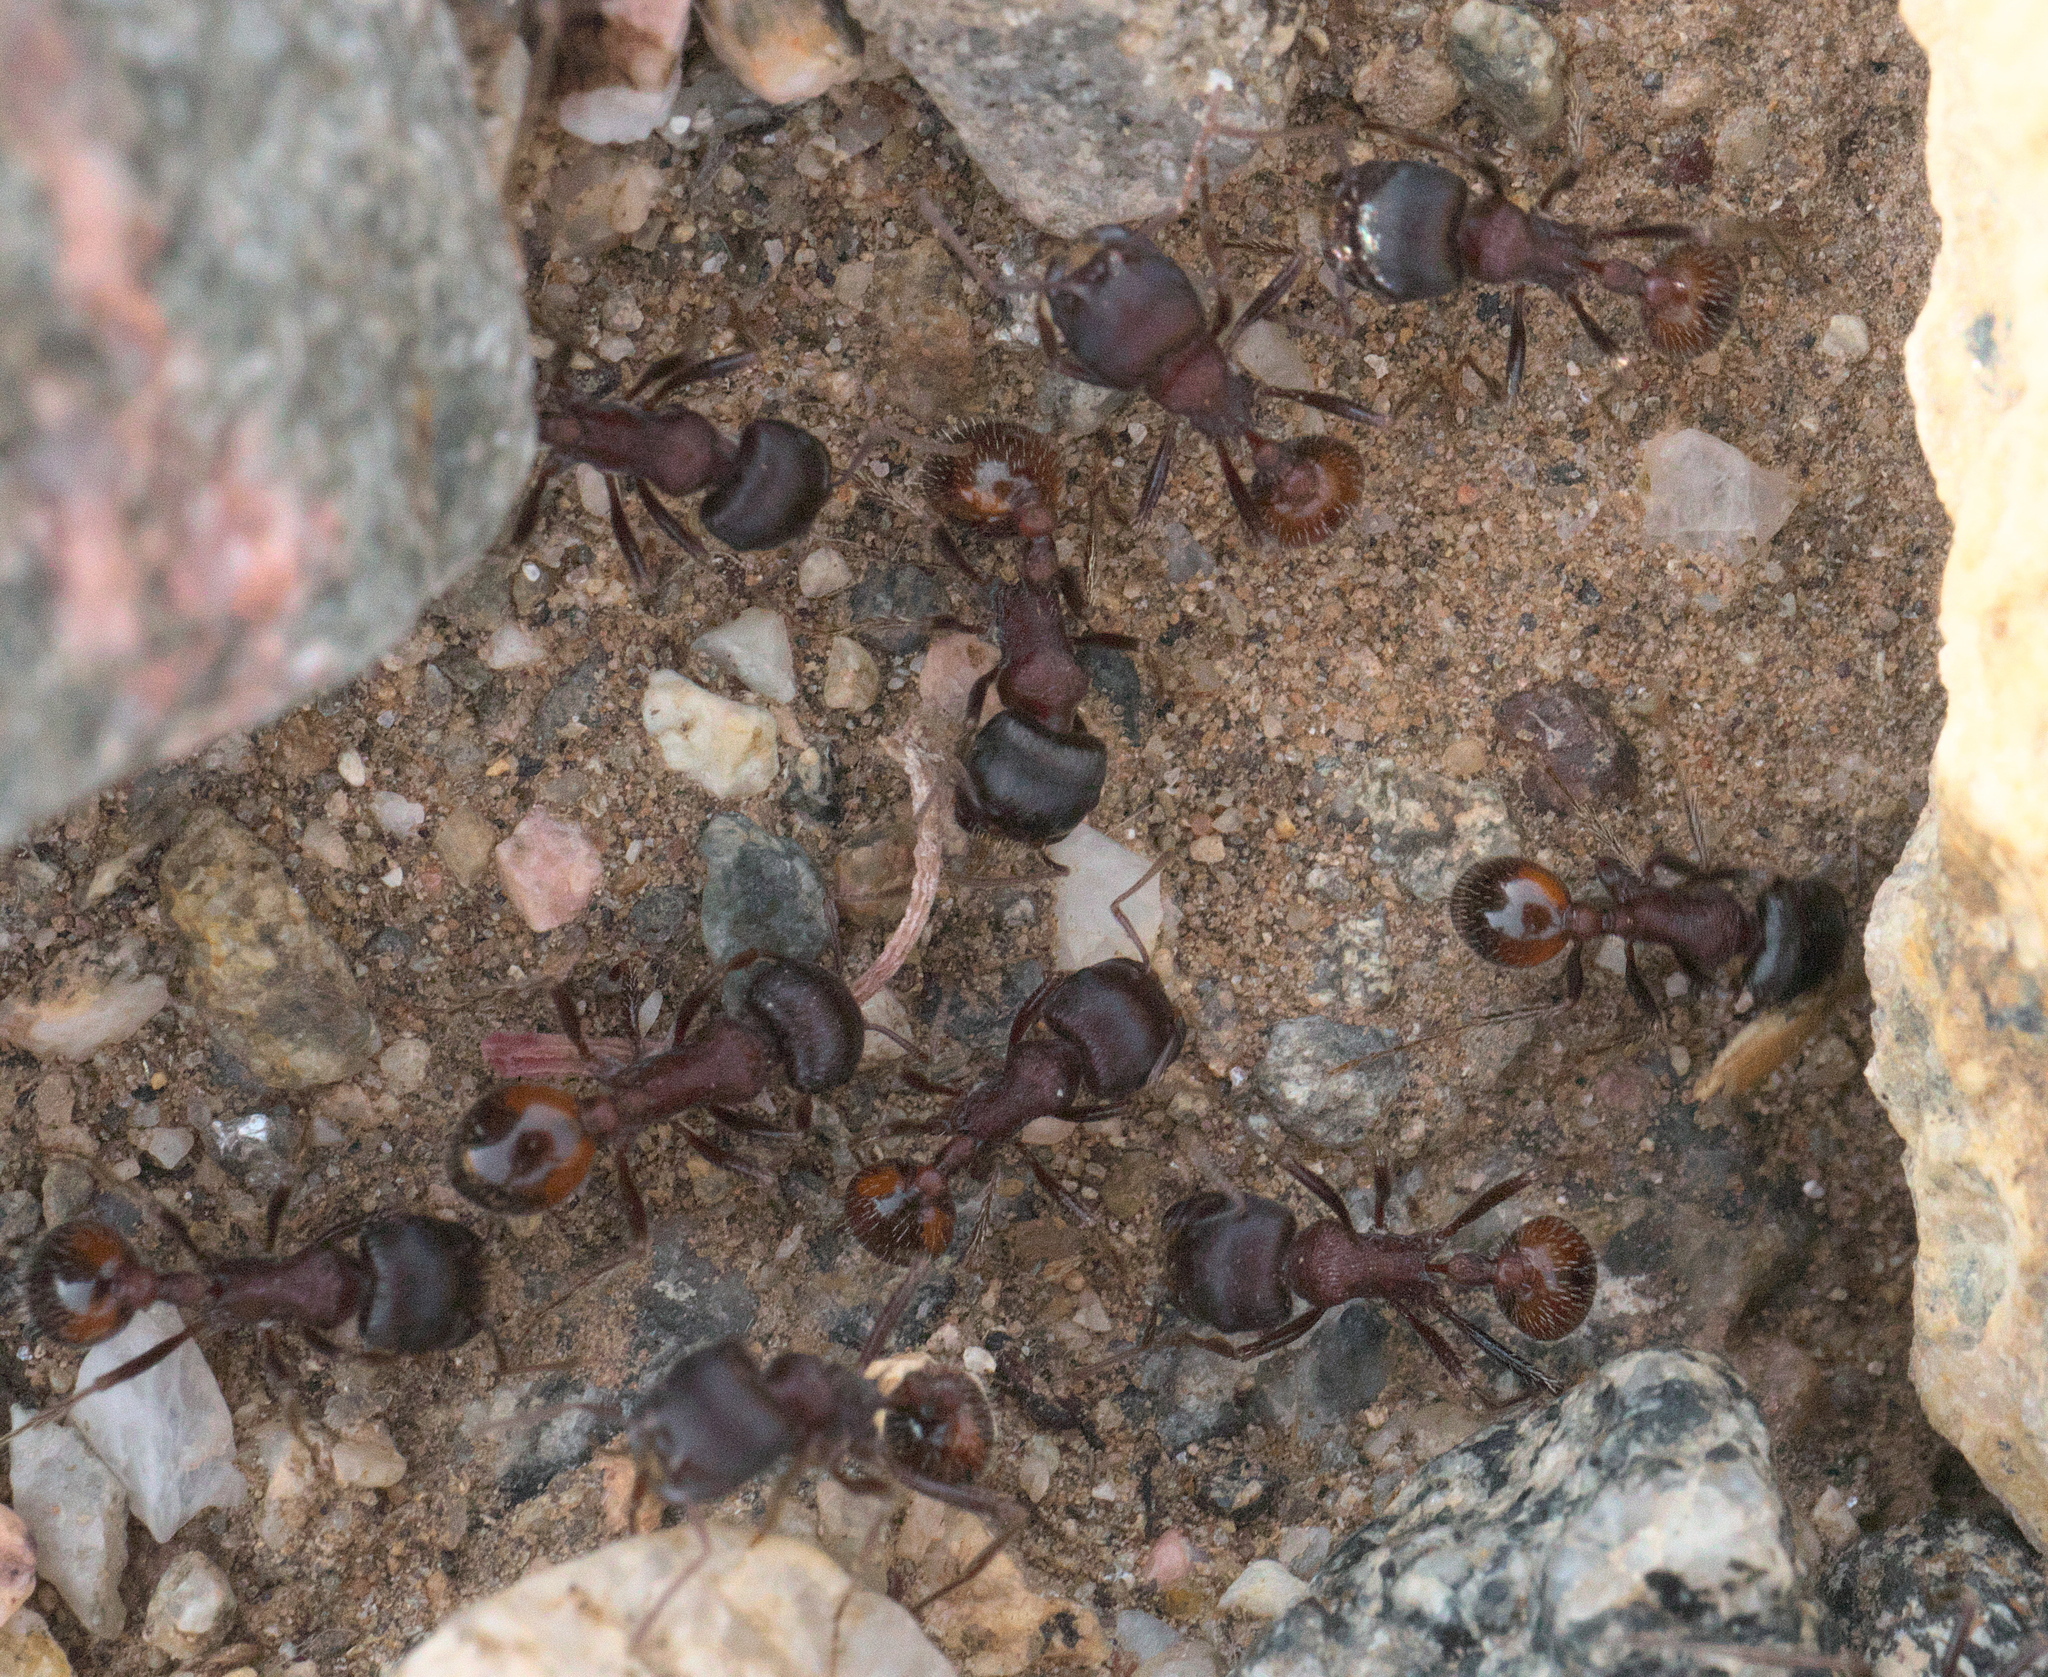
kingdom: Animalia
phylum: Arthropoda
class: Insecta
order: Hymenoptera
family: Formicidae
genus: Pogonomyrmex
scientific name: Pogonomyrmex rugosus
